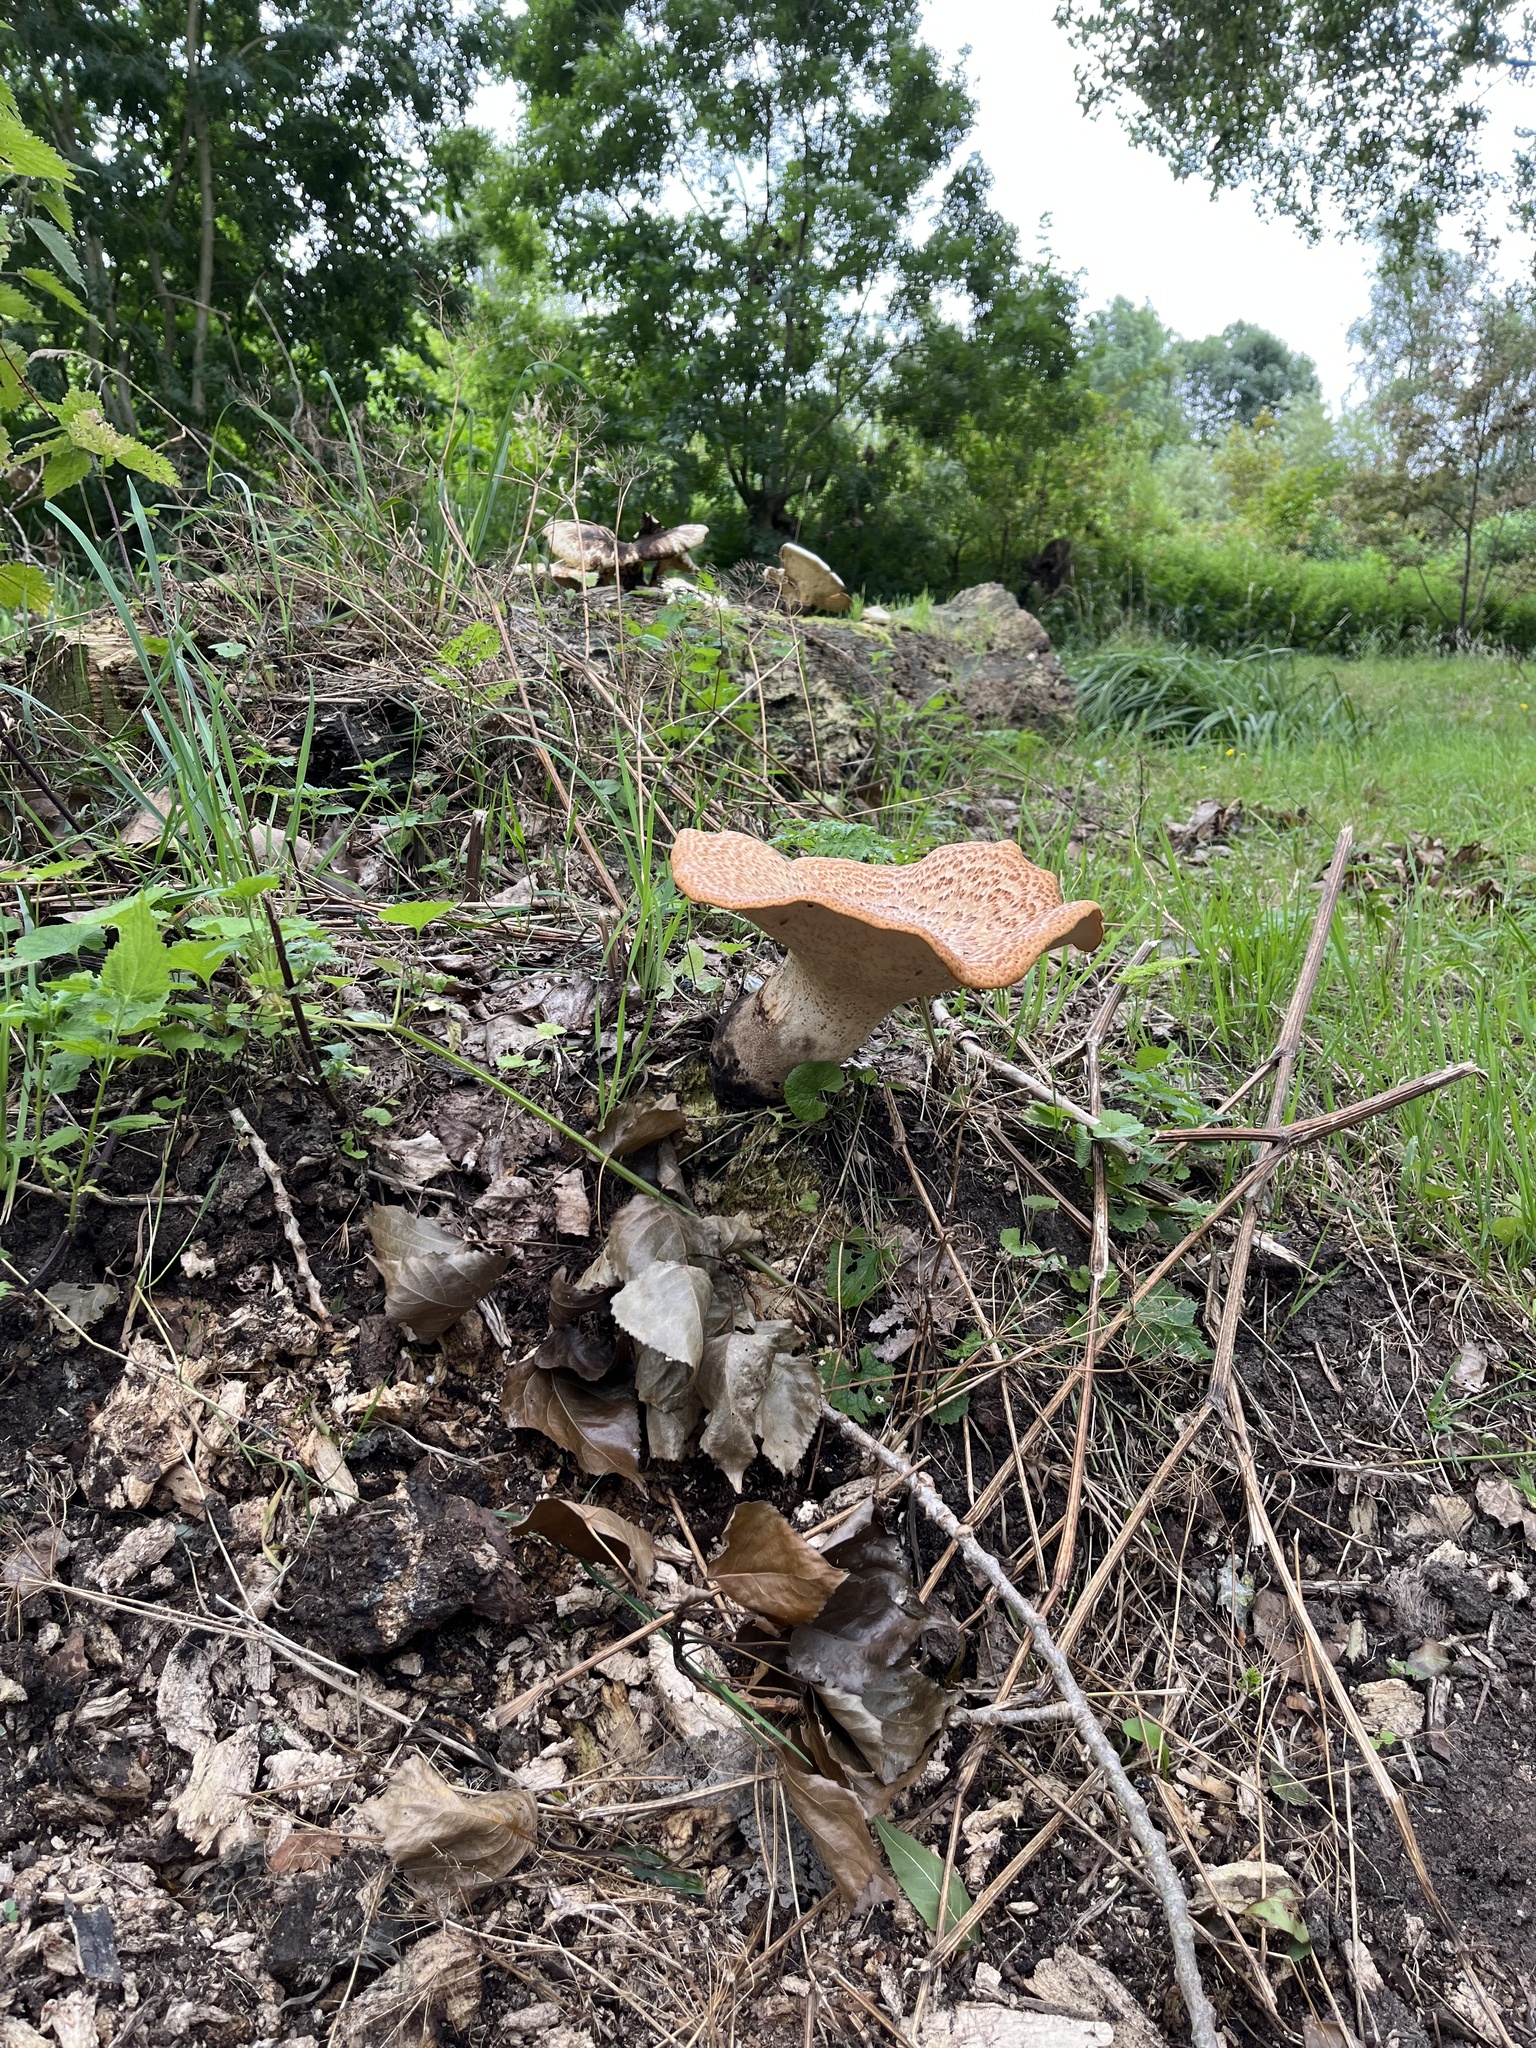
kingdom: Fungi
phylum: Basidiomycota
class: Agaricomycetes
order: Polyporales
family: Polyporaceae
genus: Cerioporus
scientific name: Cerioporus squamosus
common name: Dryad's saddle
